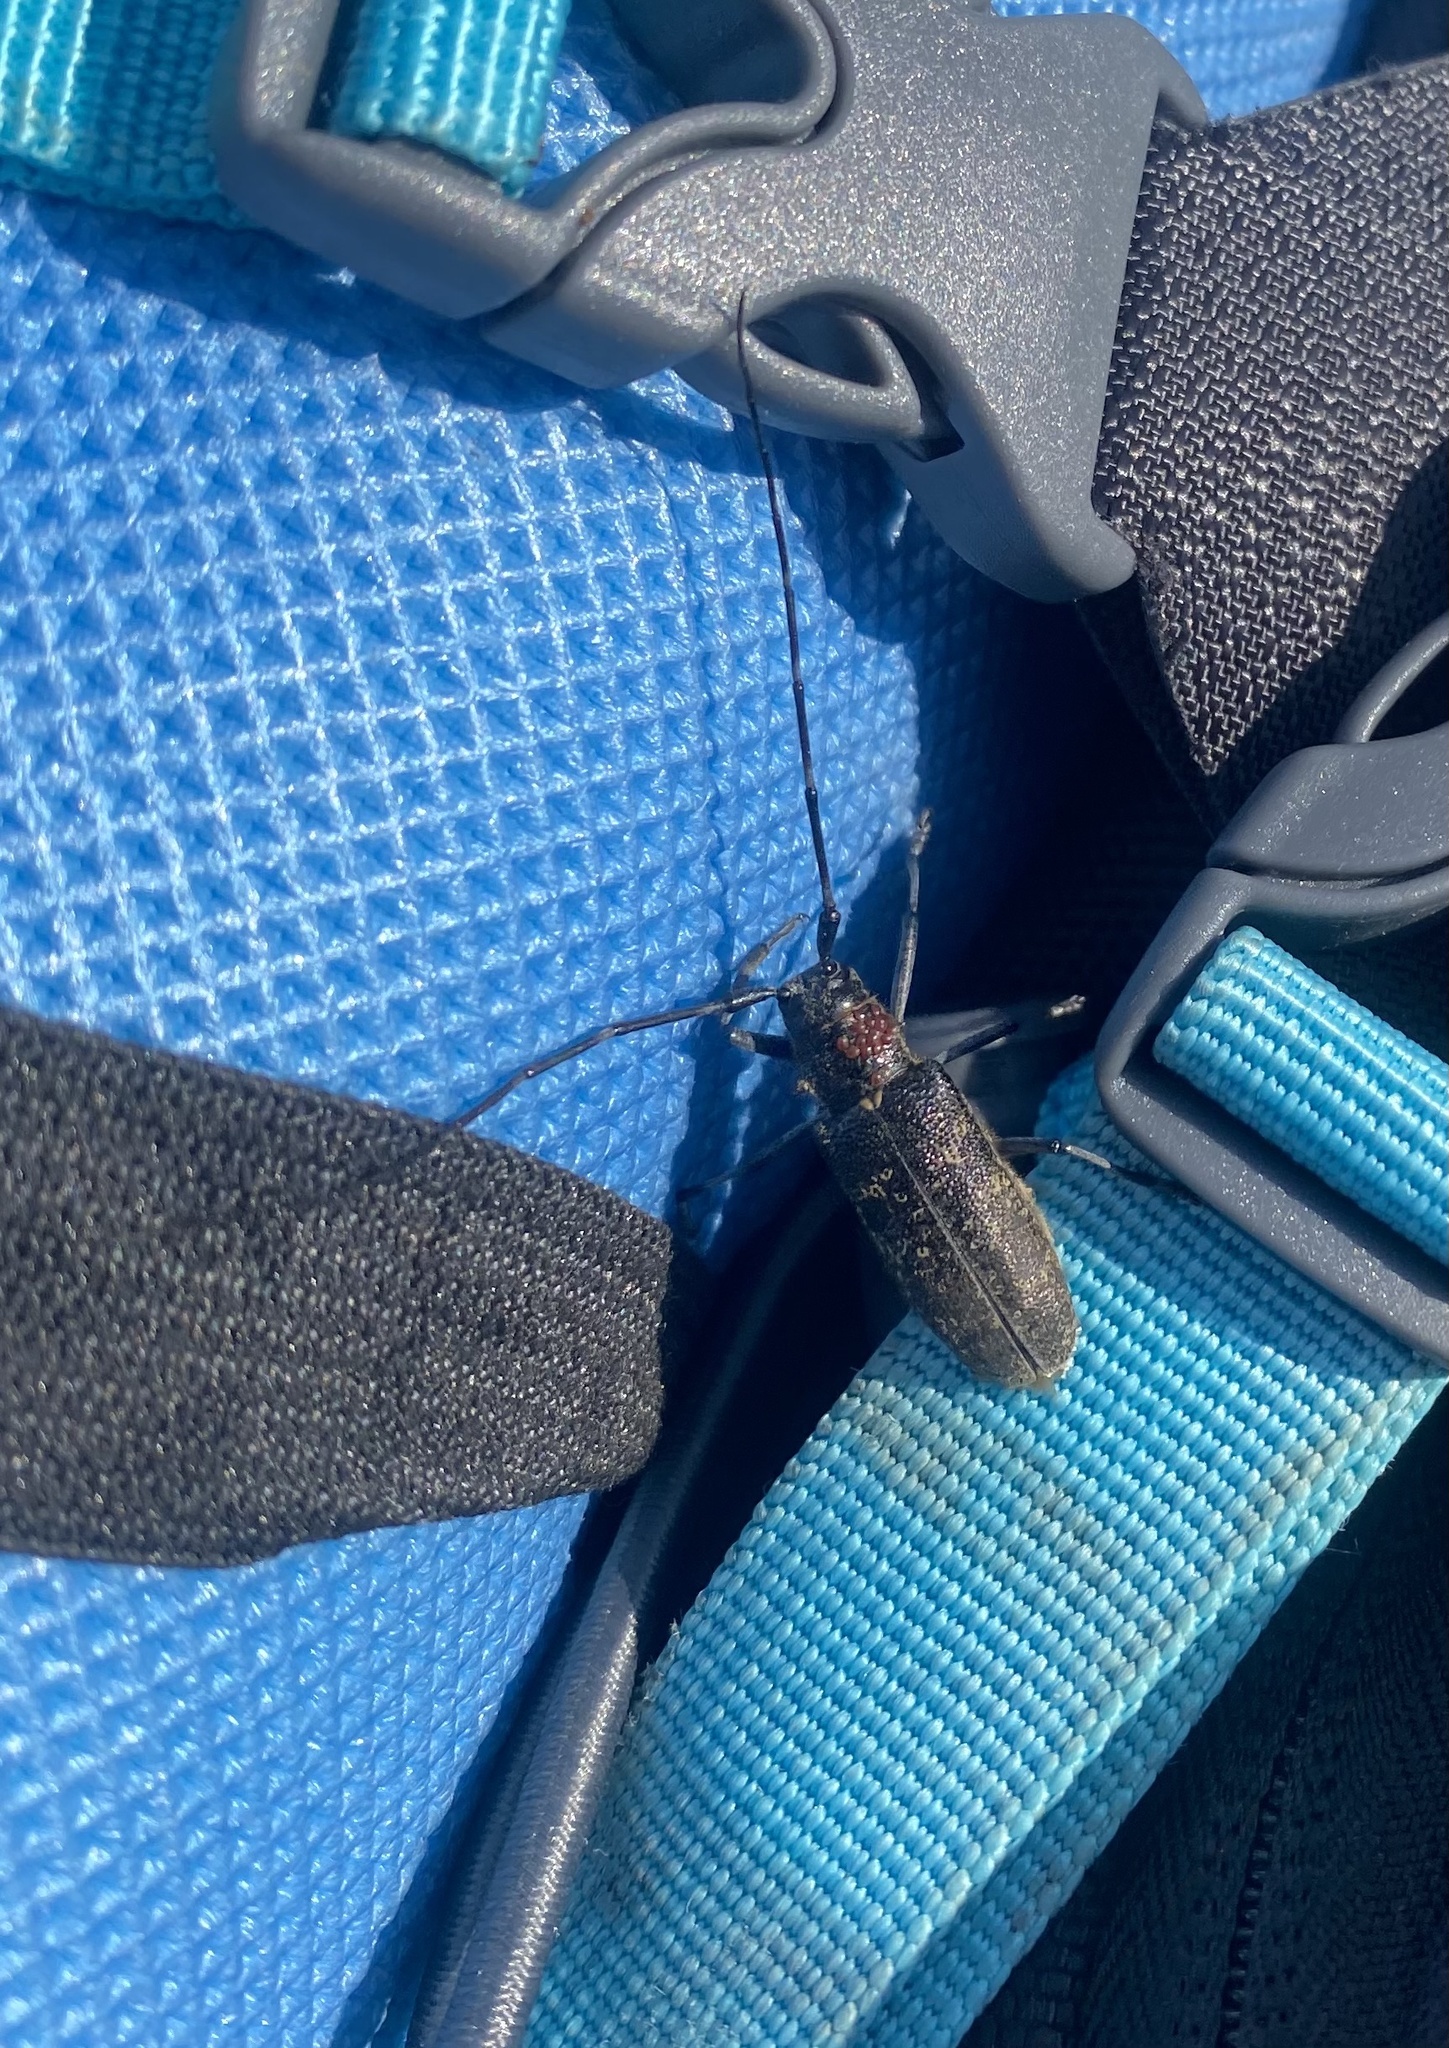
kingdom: Animalia
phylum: Arthropoda
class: Insecta
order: Coleoptera
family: Cerambycidae
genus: Monochamus
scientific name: Monochamus sutor
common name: Pine sawyer
